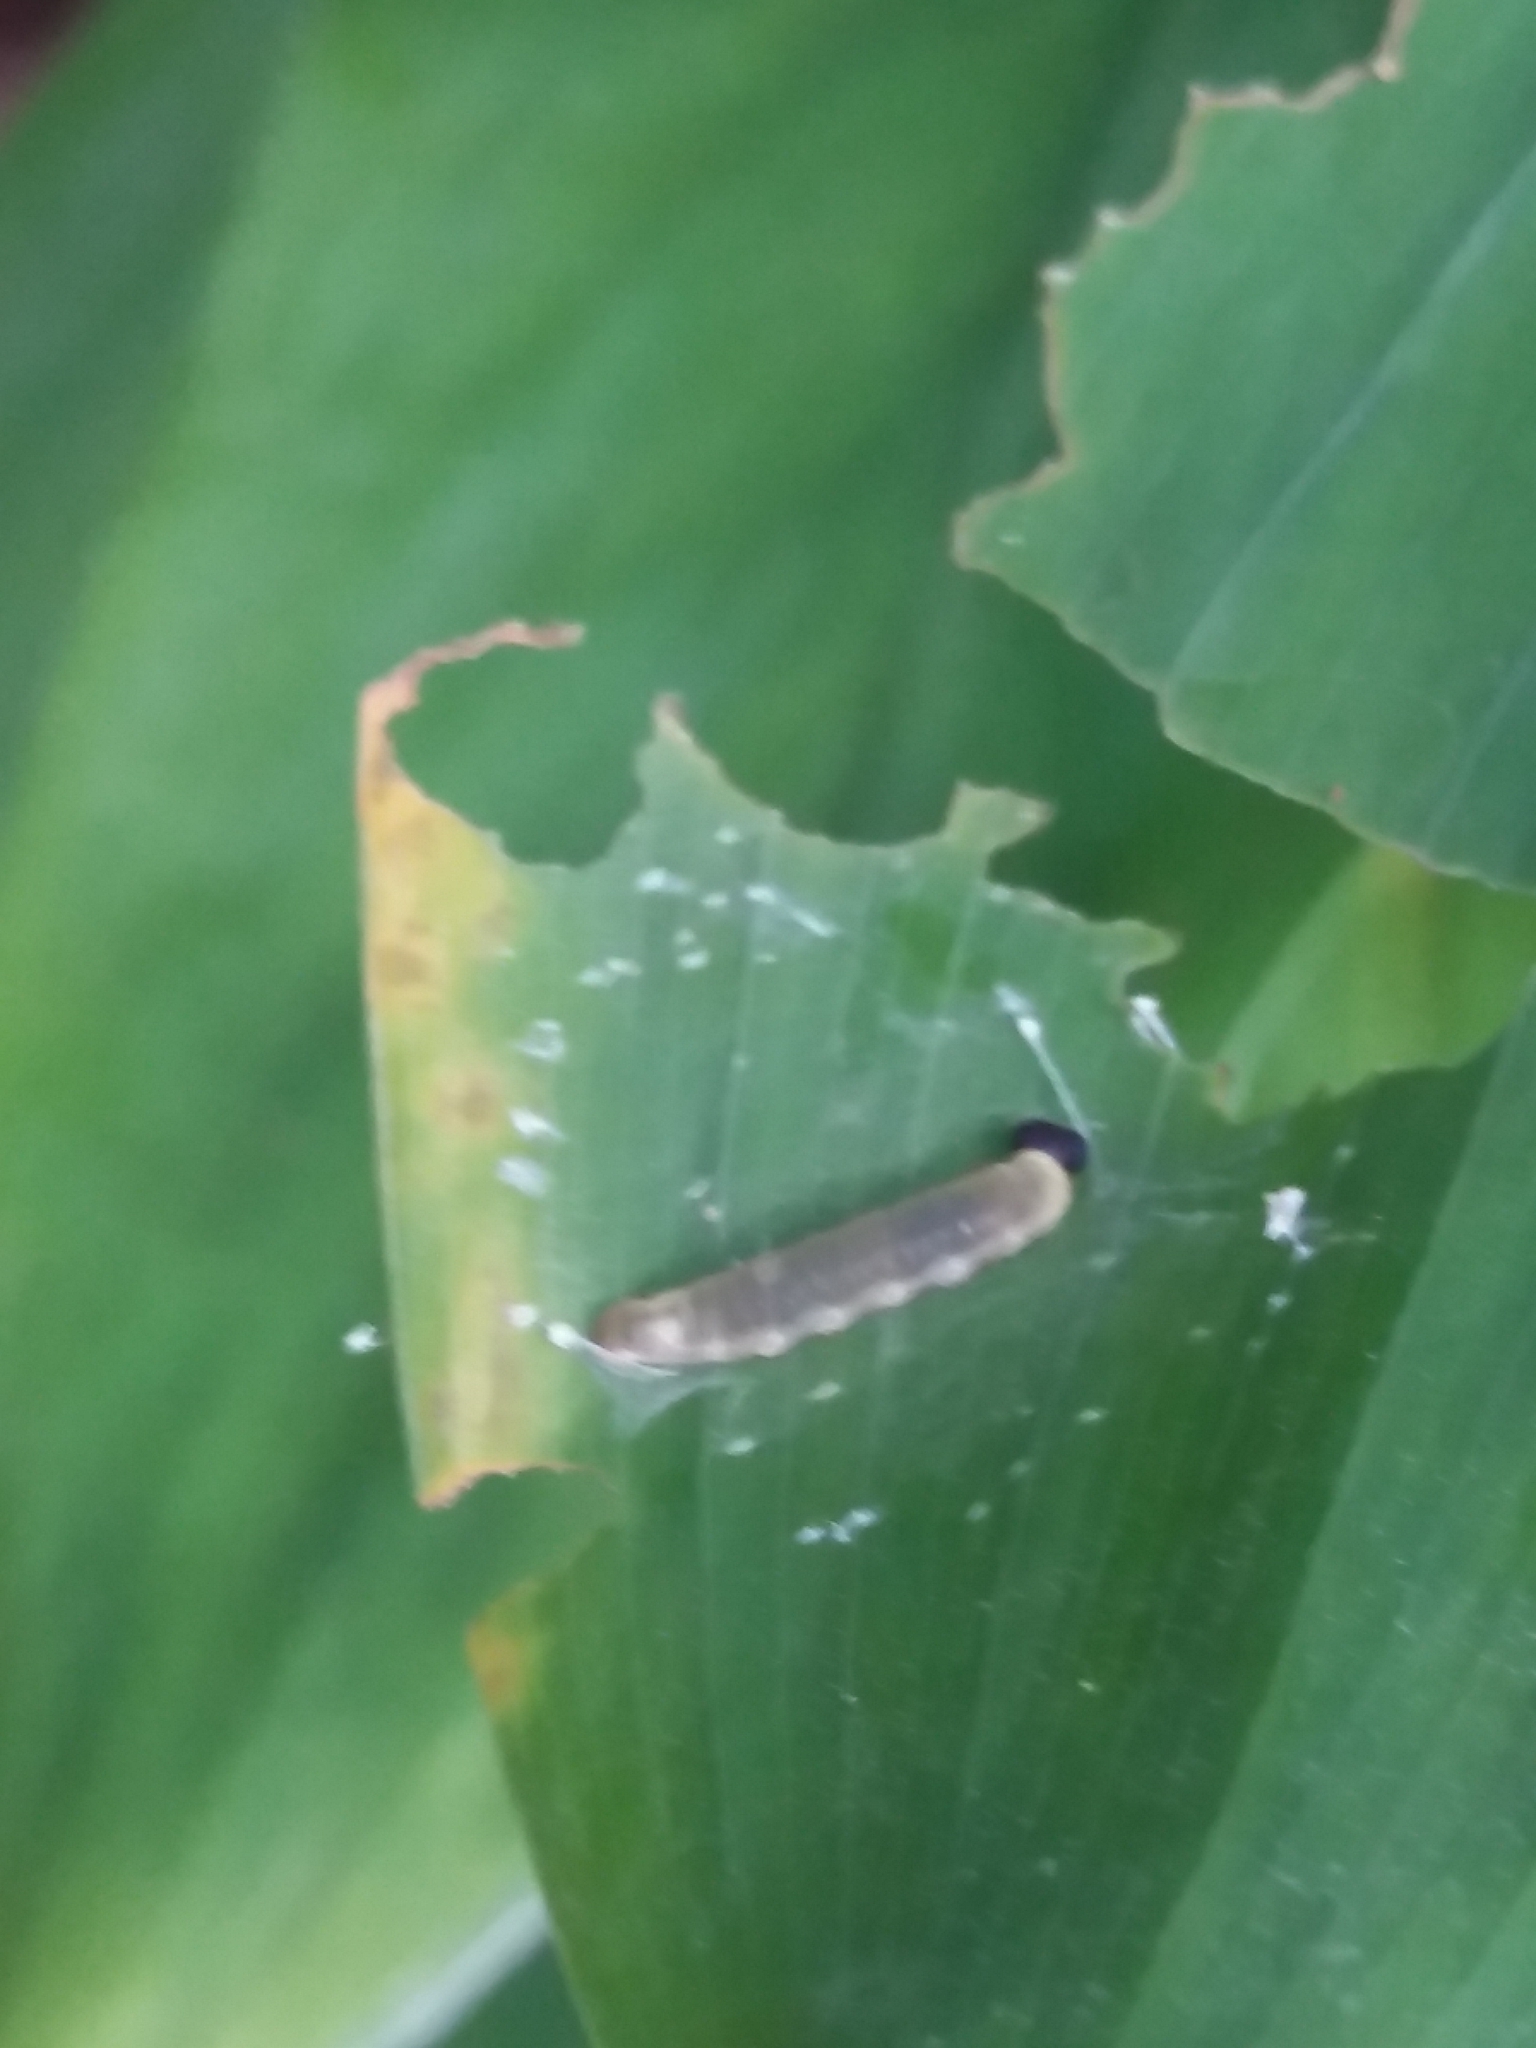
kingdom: Animalia
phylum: Arthropoda
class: Insecta
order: Lepidoptera
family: Hesperiidae
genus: Psolos
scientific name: Psolos fuligo
